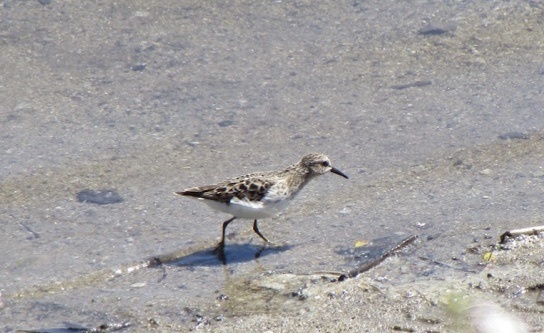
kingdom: Animalia
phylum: Chordata
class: Aves
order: Charadriiformes
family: Scolopacidae
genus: Calidris
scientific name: Calidris minutilla
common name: Least sandpiper
